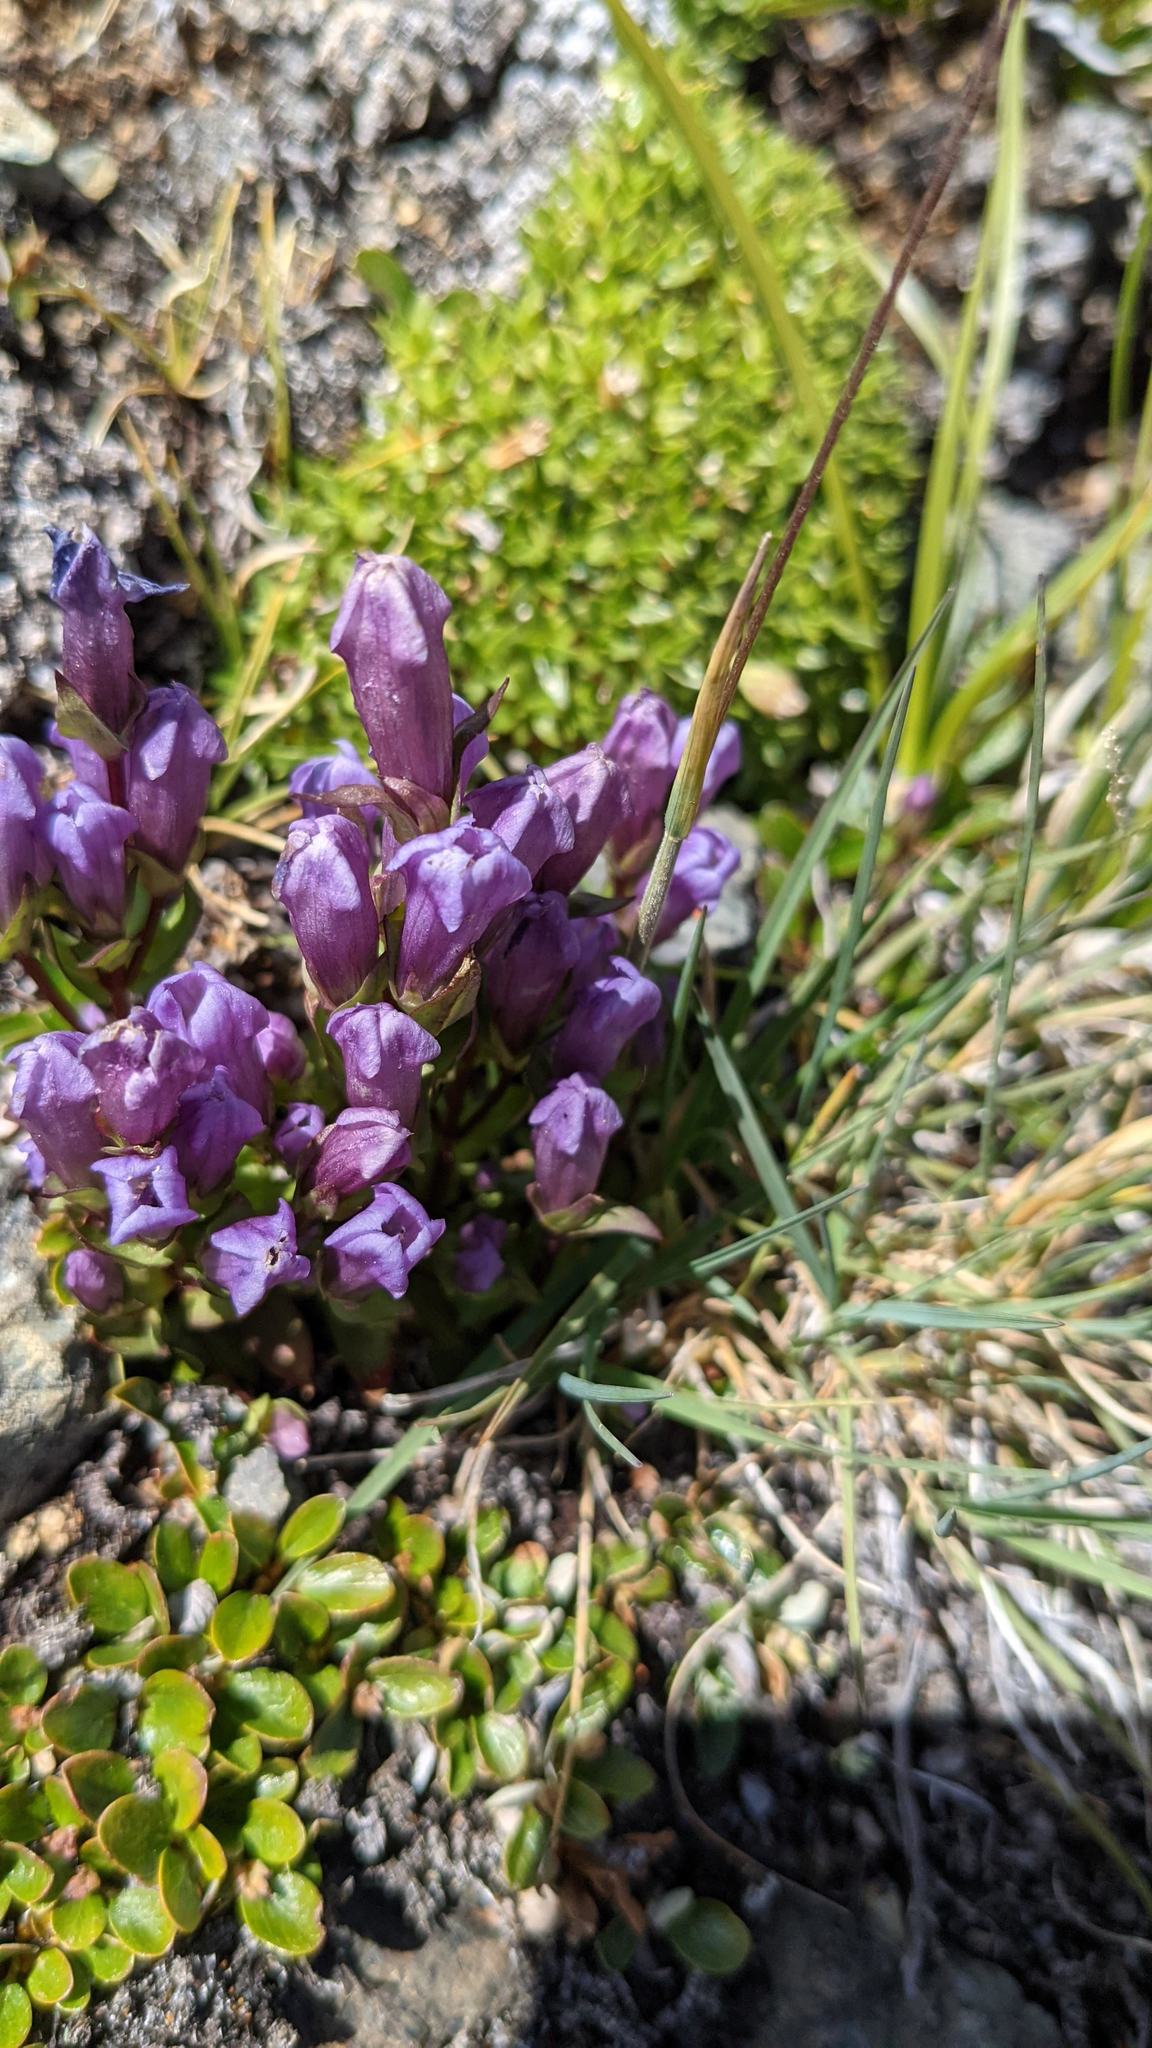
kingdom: Plantae
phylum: Tracheophyta
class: Magnoliopsida
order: Gentianales
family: Gentianaceae
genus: Gentianella
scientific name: Gentianella propinqua
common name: Four-parted dwarf-gentian
